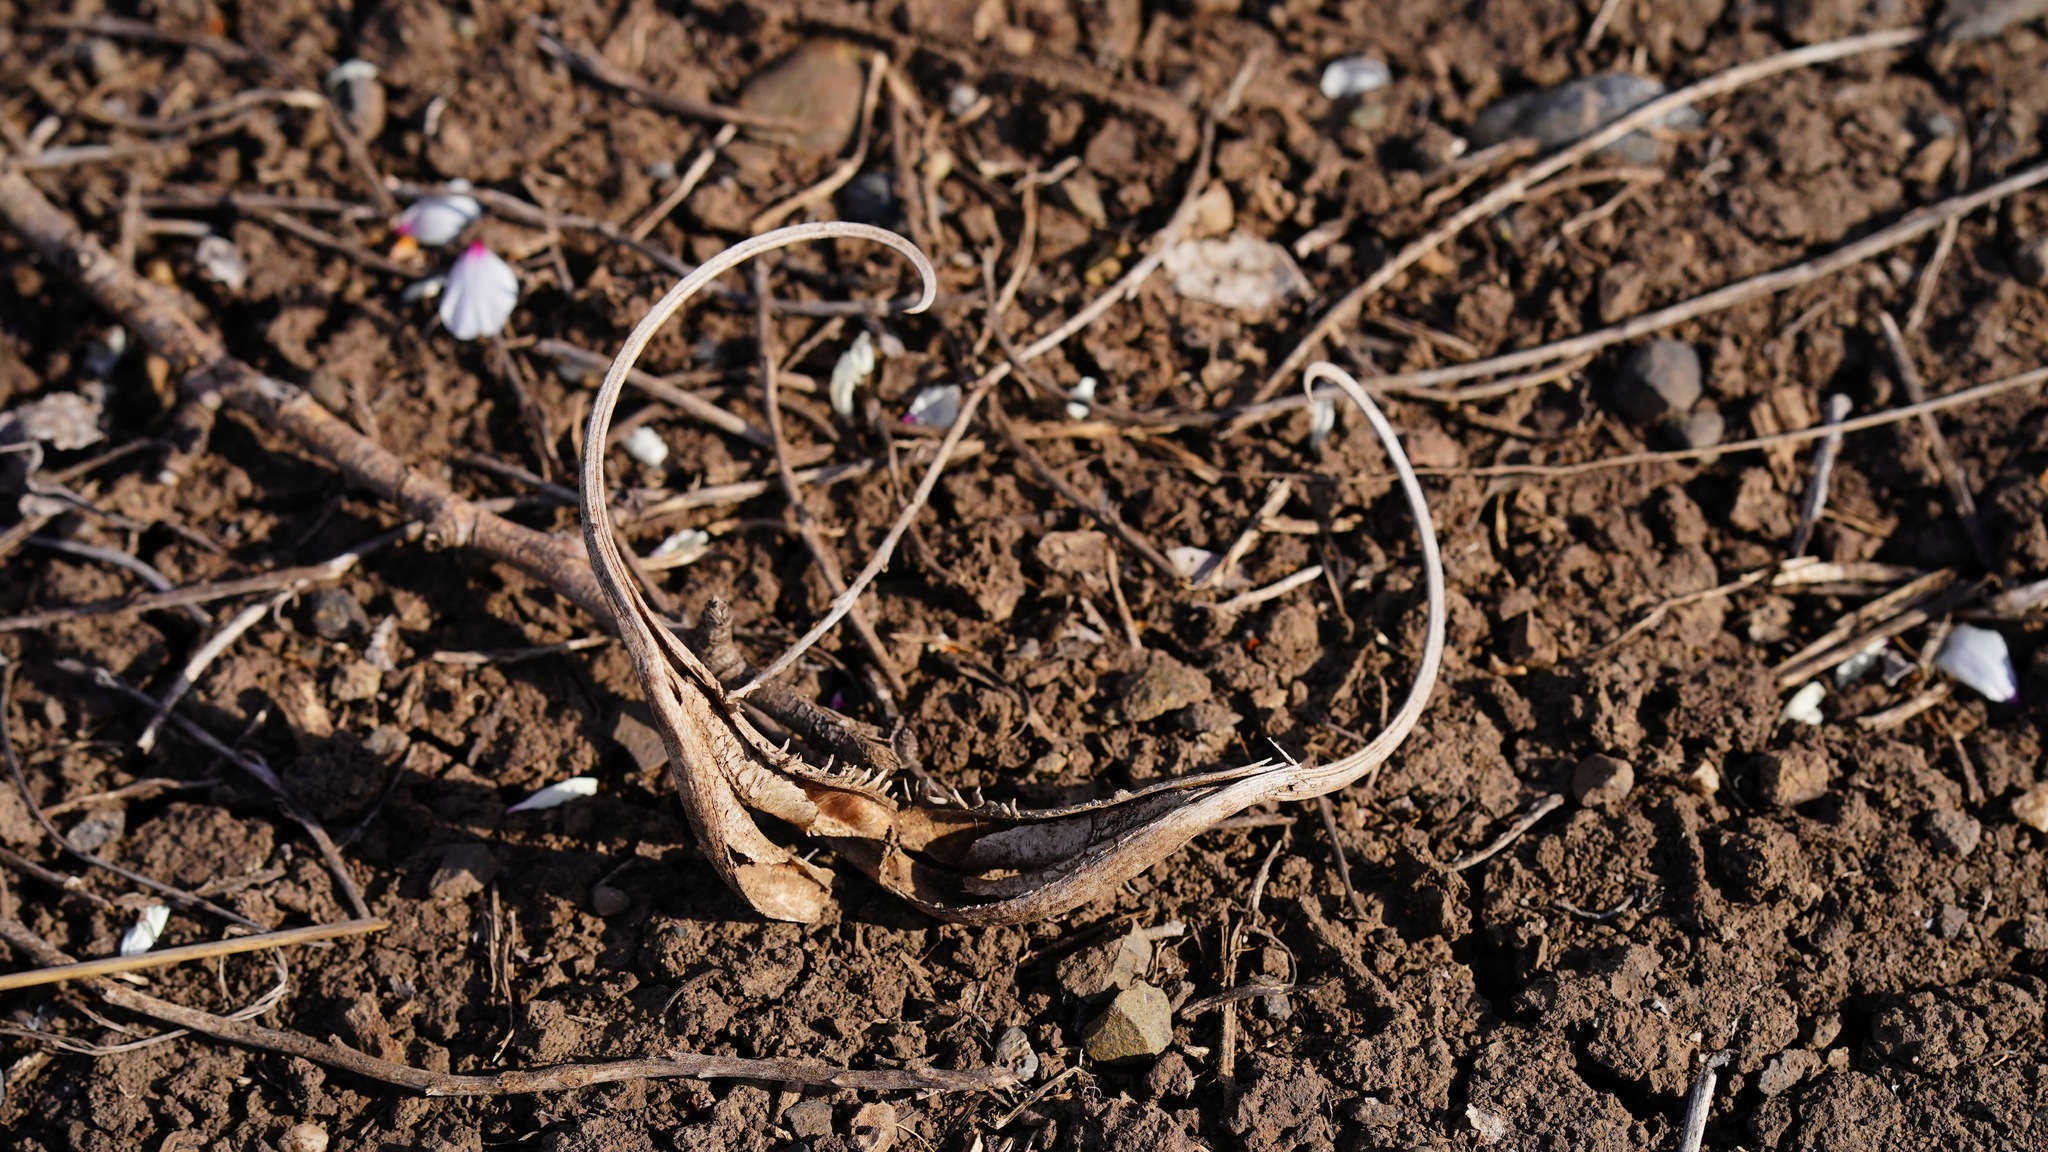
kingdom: Plantae
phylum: Tracheophyta
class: Magnoliopsida
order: Lamiales
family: Martyniaceae
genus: Proboscidea
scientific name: Proboscidea louisianica
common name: Elephant tusks
